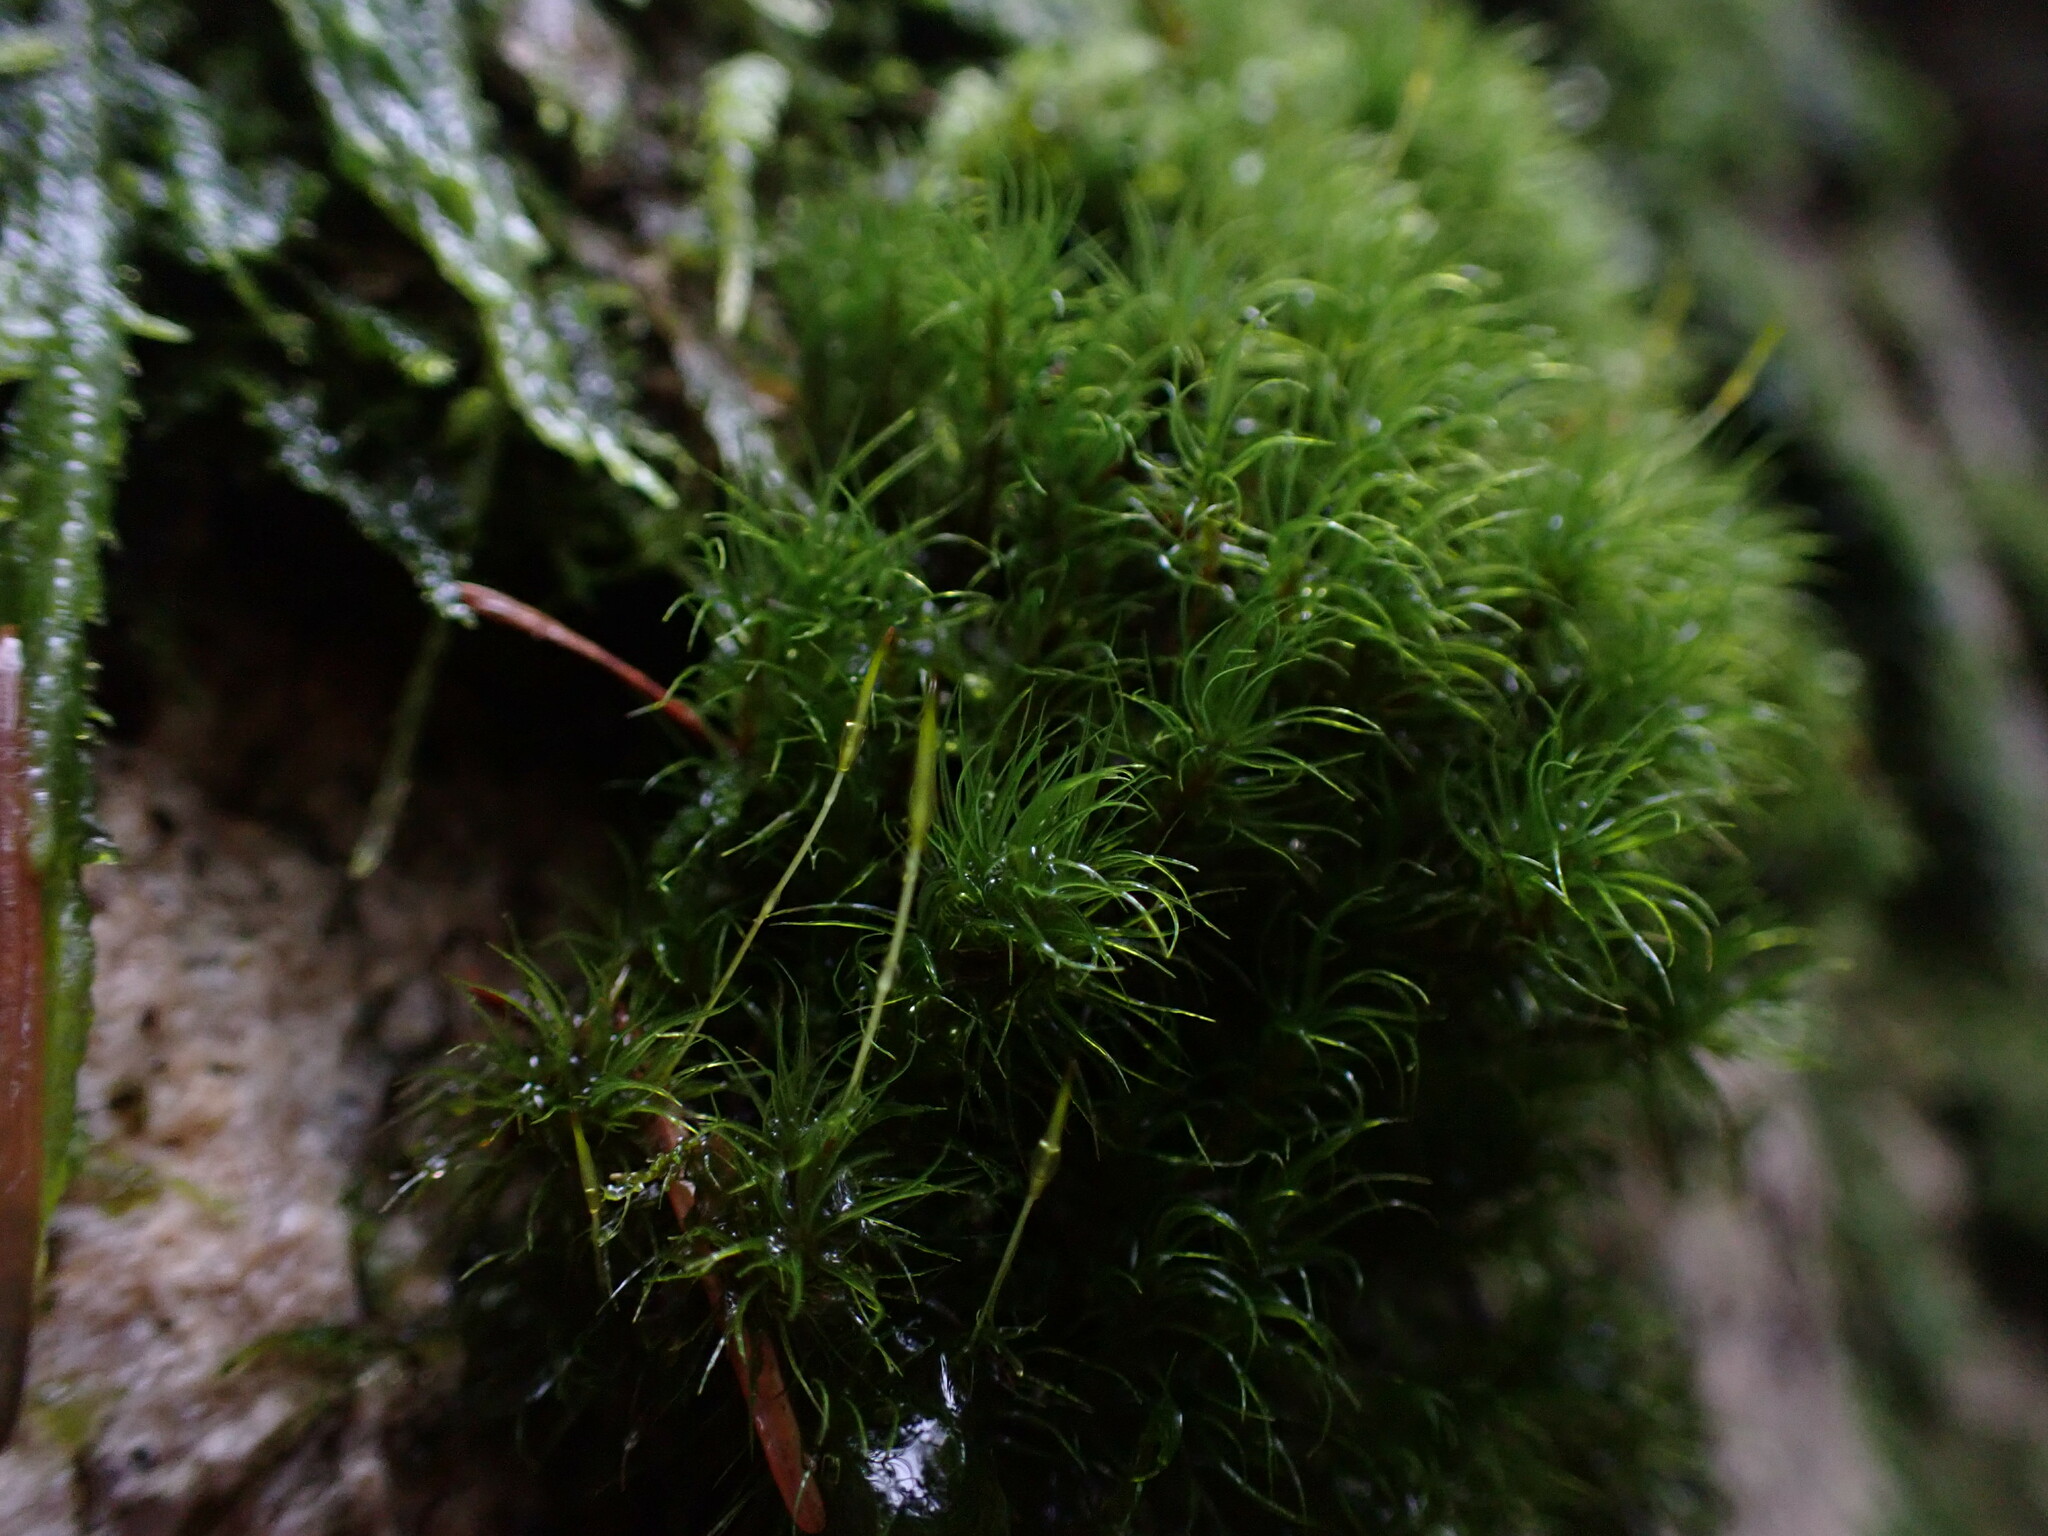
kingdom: Plantae
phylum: Bryophyta
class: Bryopsida
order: Dicranales
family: Dicranaceae
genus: Dicranum
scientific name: Dicranum fuscescens
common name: Curly heron's-bill moss
